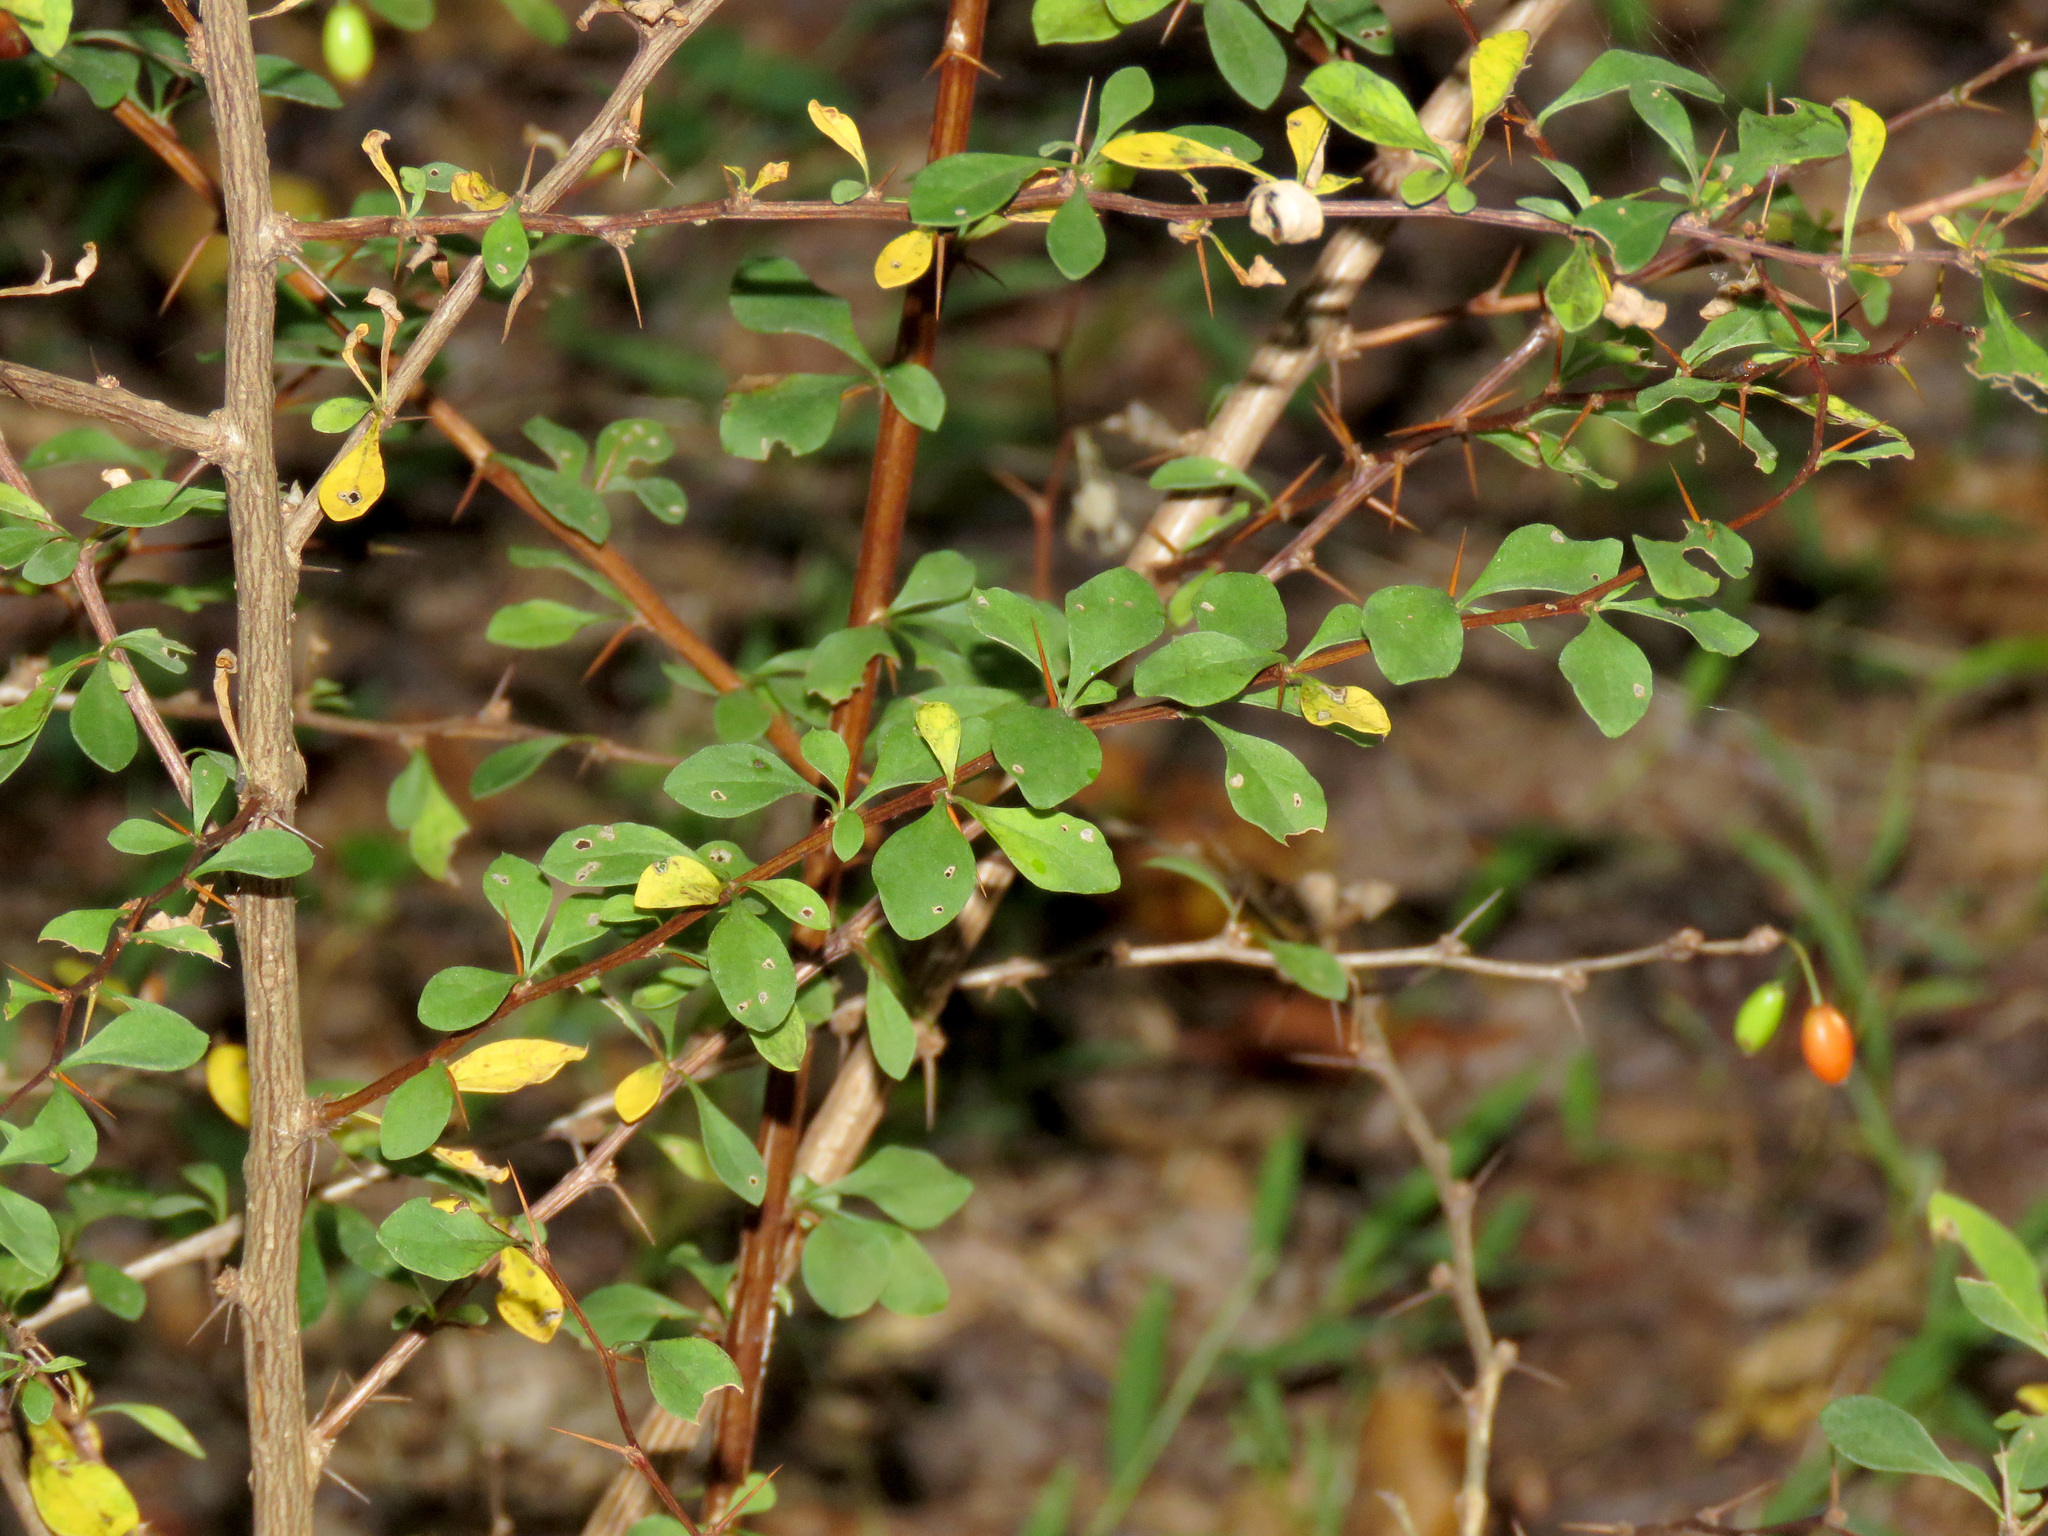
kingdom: Plantae
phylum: Tracheophyta
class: Magnoliopsida
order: Ranunculales
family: Berberidaceae
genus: Berberis
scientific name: Berberis thunbergii
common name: Japanese barberry
